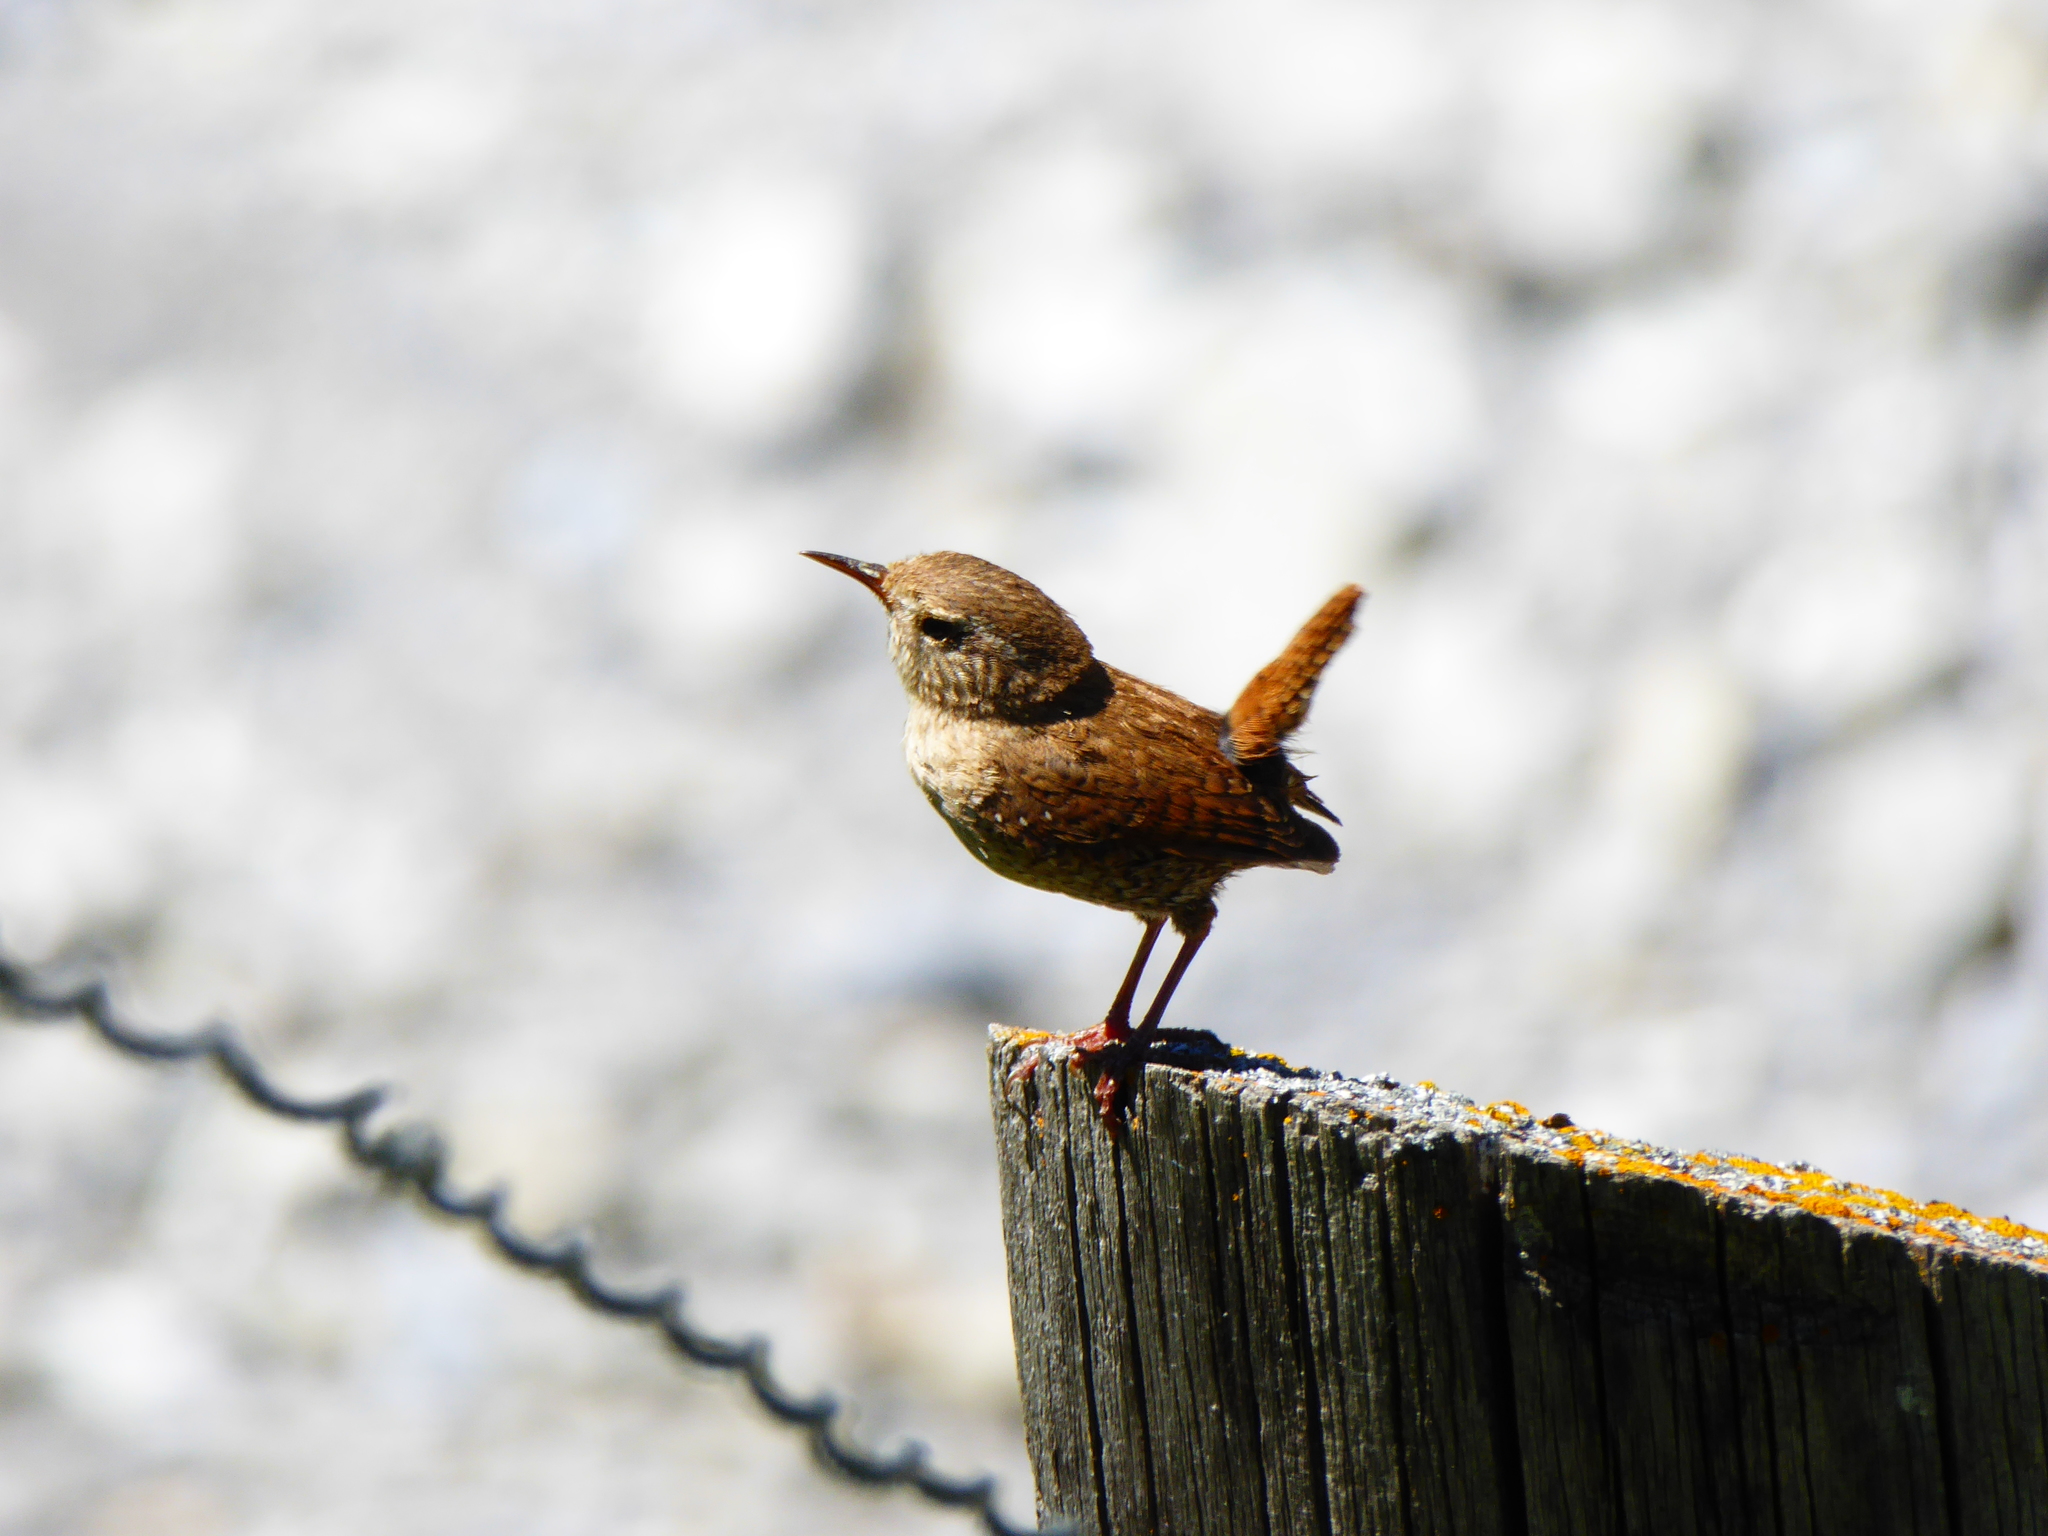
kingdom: Animalia
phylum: Chordata
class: Aves
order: Passeriformes
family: Troglodytidae
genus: Troglodytes
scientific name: Troglodytes troglodytes
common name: Eurasian wren
